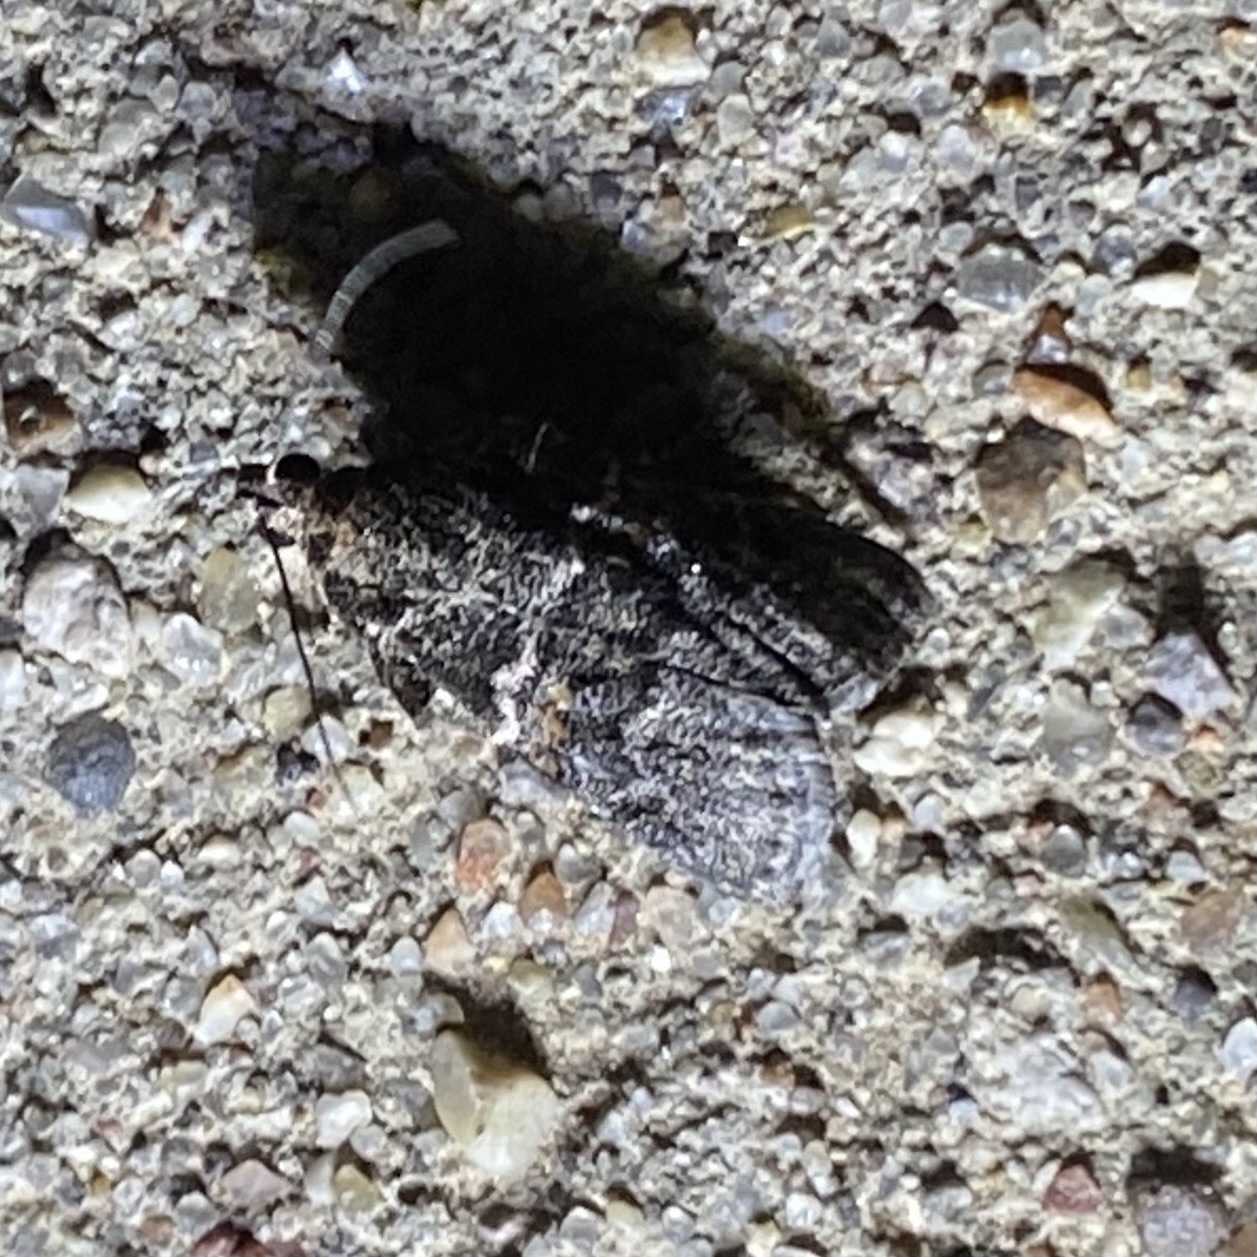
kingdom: Animalia
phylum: Arthropoda
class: Insecta
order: Lepidoptera
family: Pyralidae
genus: Satole
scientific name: Satole ligniperdalis
